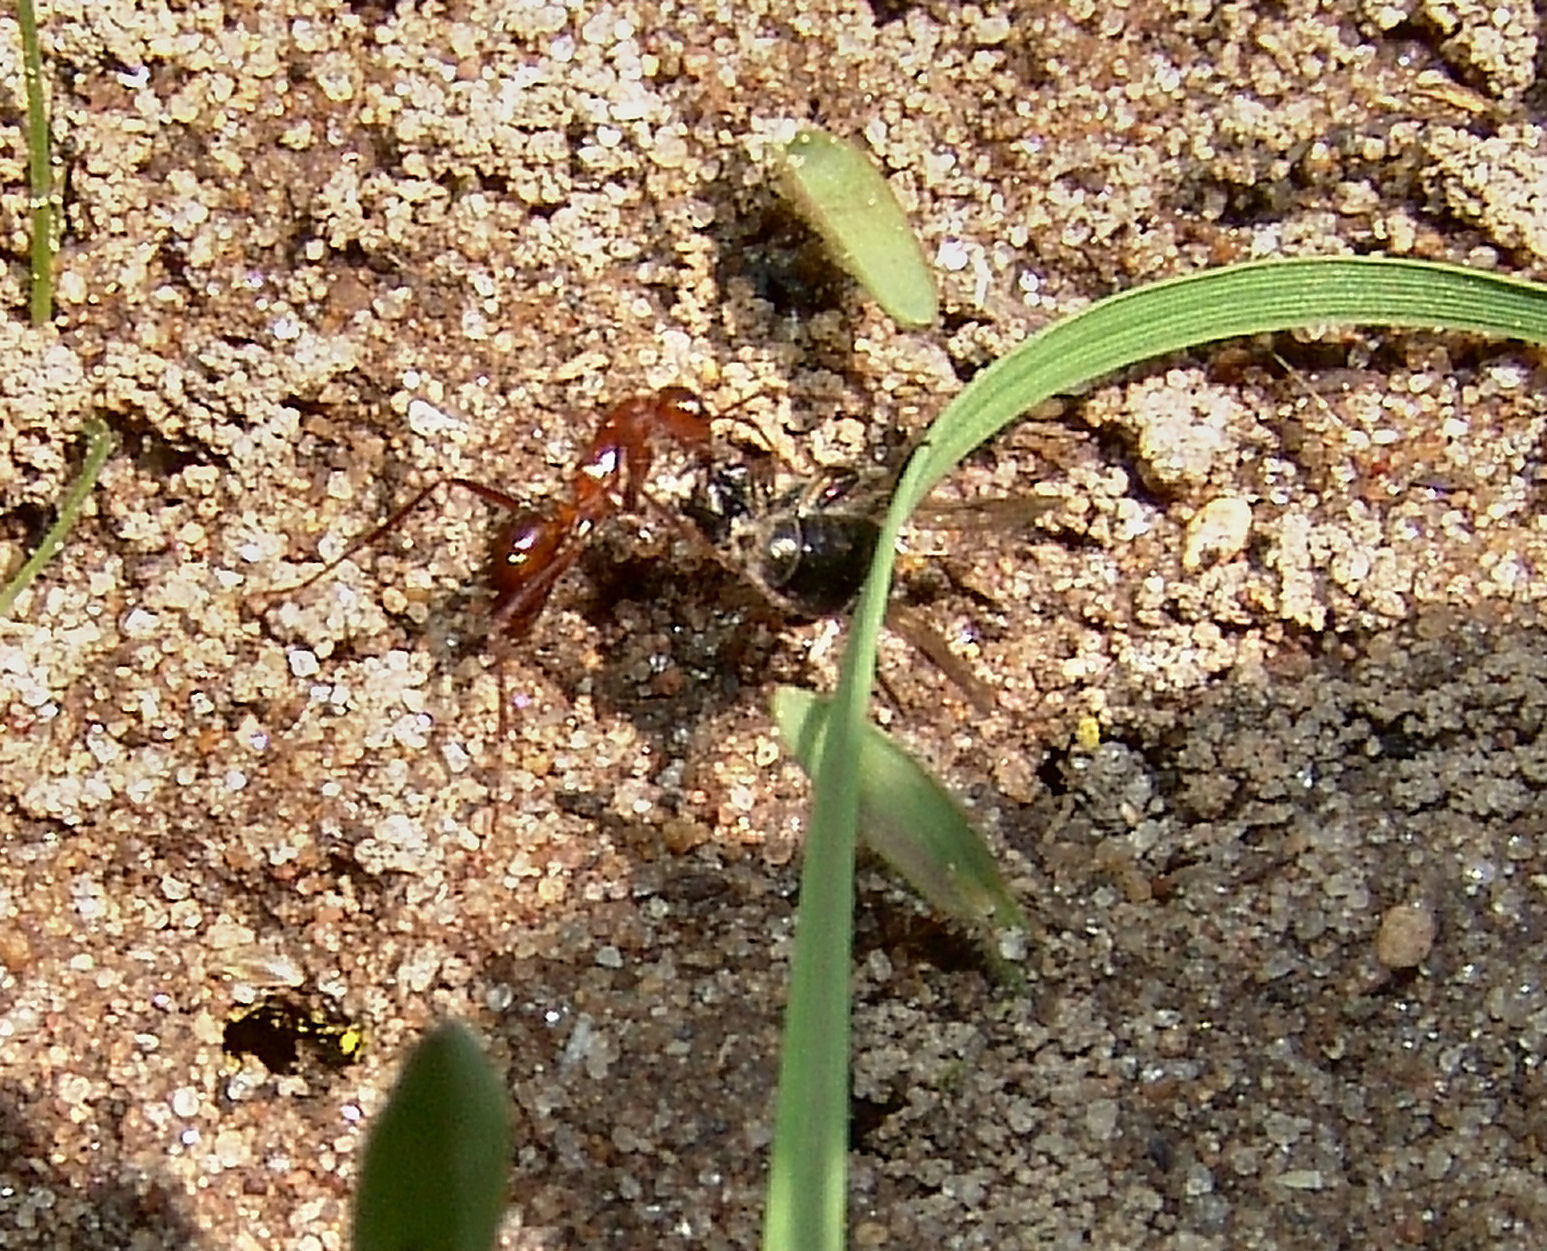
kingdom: Animalia
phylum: Arthropoda
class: Insecta
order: Hymenoptera
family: Formicidae
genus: Formica
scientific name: Formica
